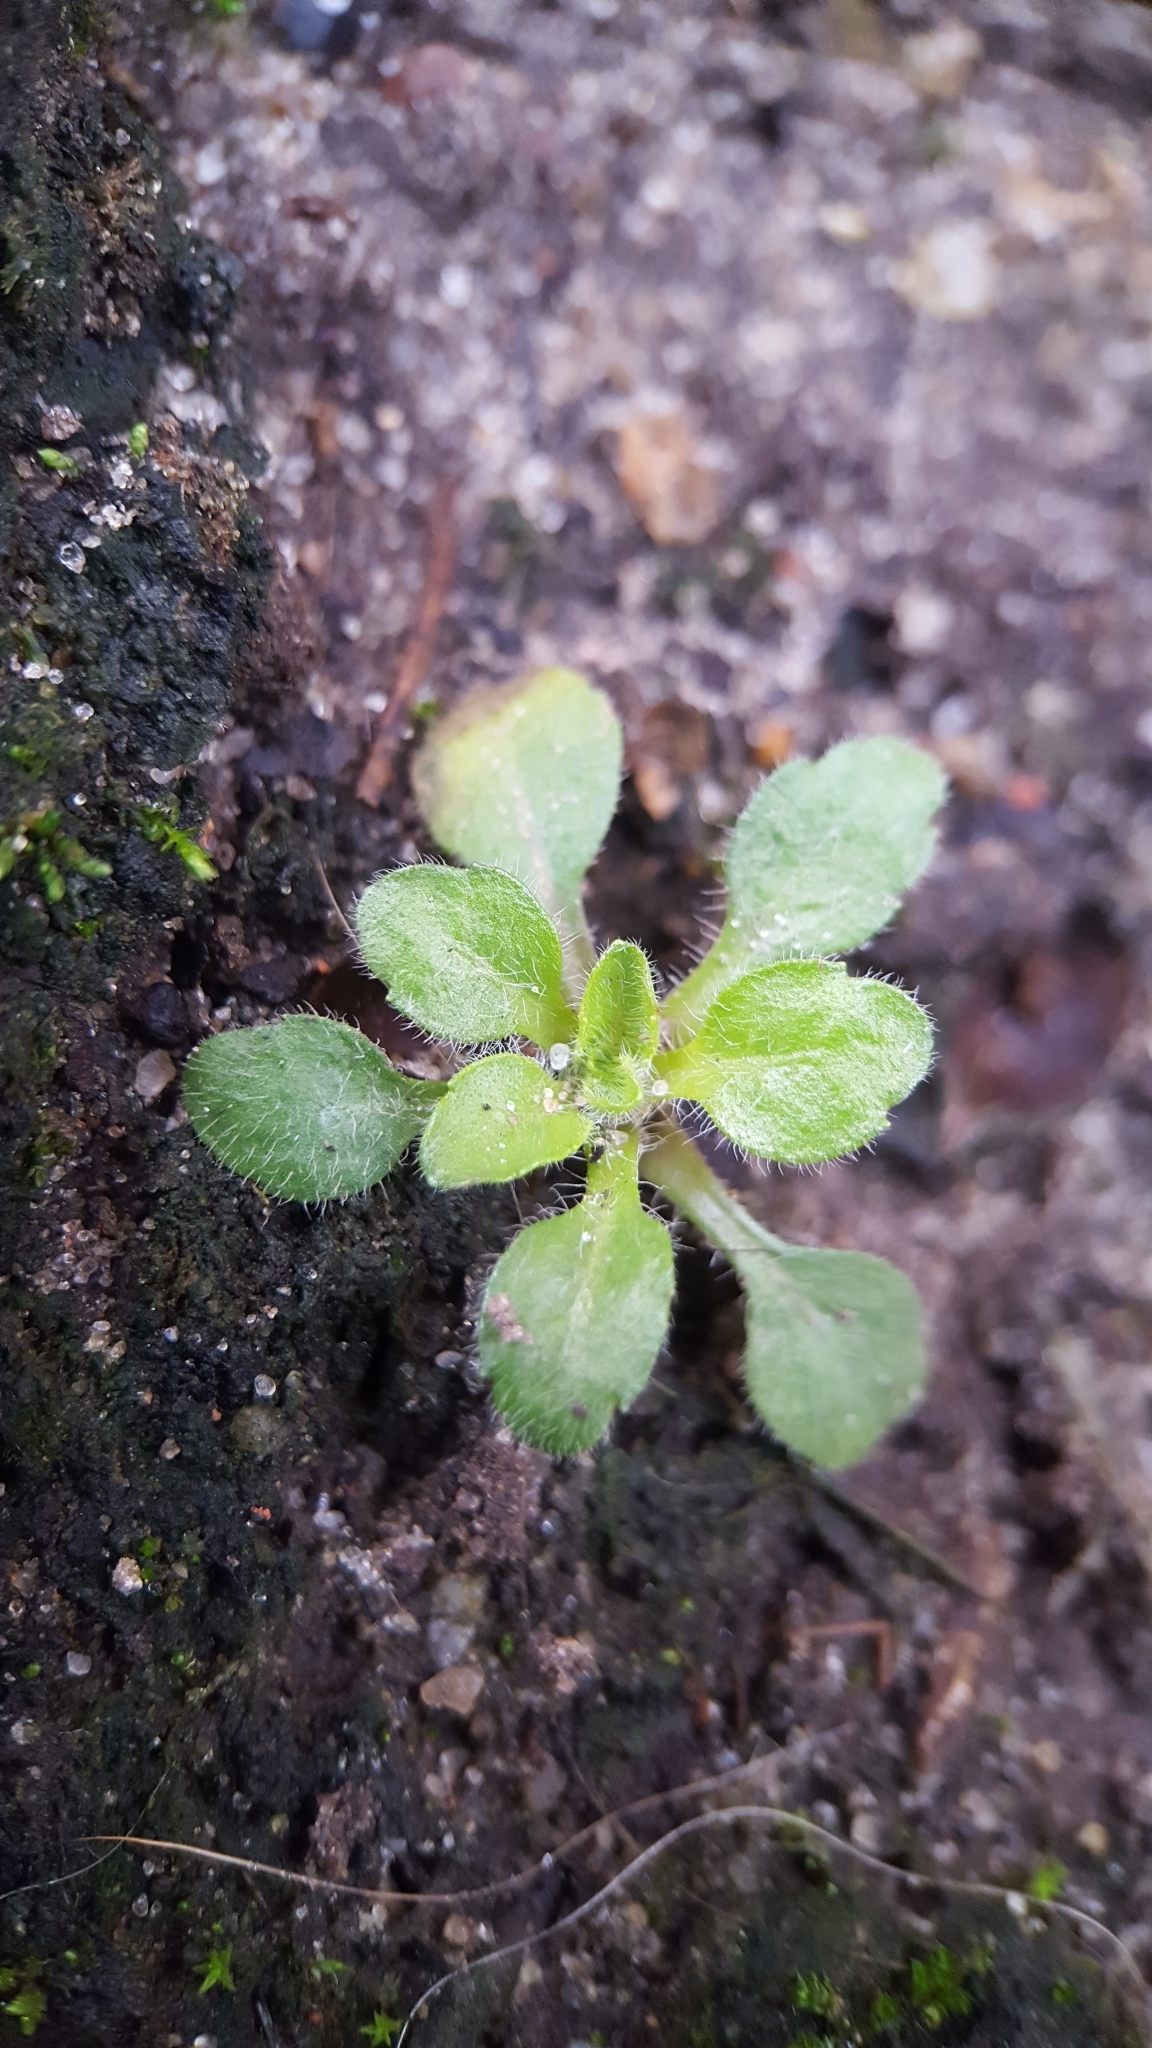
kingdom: Plantae
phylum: Tracheophyta
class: Magnoliopsida
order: Asterales
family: Asteraceae
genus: Erigeron
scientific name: Erigeron canadensis
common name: Canadian fleabane
